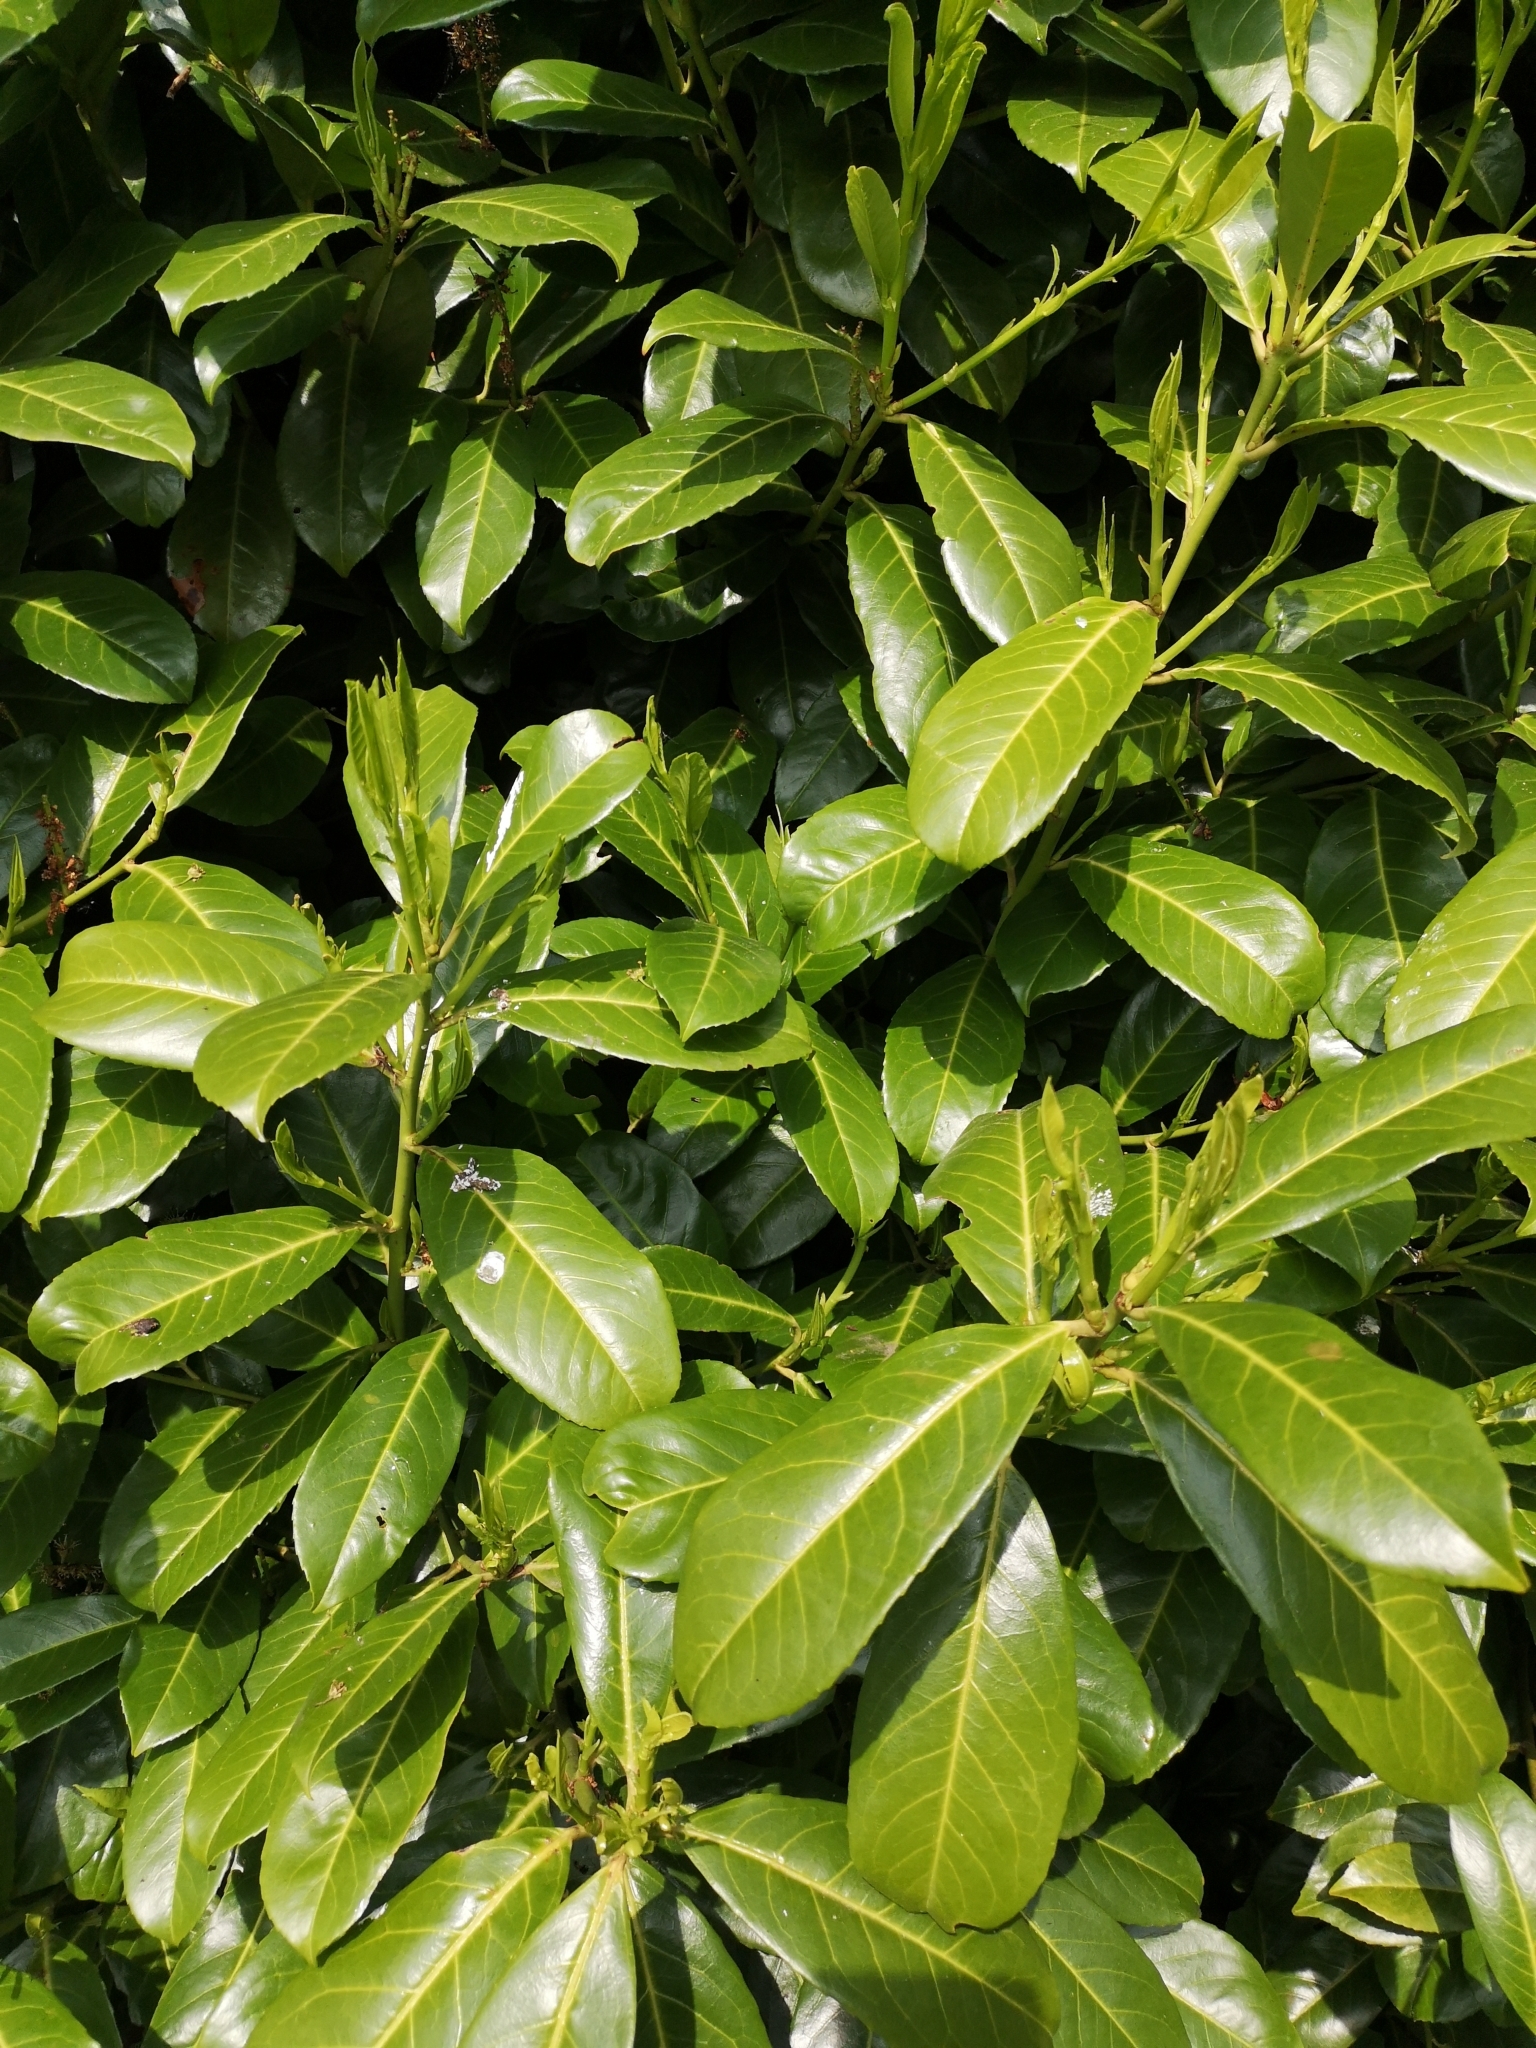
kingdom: Plantae
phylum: Tracheophyta
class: Magnoliopsida
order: Rosales
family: Rosaceae
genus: Prunus
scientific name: Prunus laurocerasus
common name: Cherry laurel
